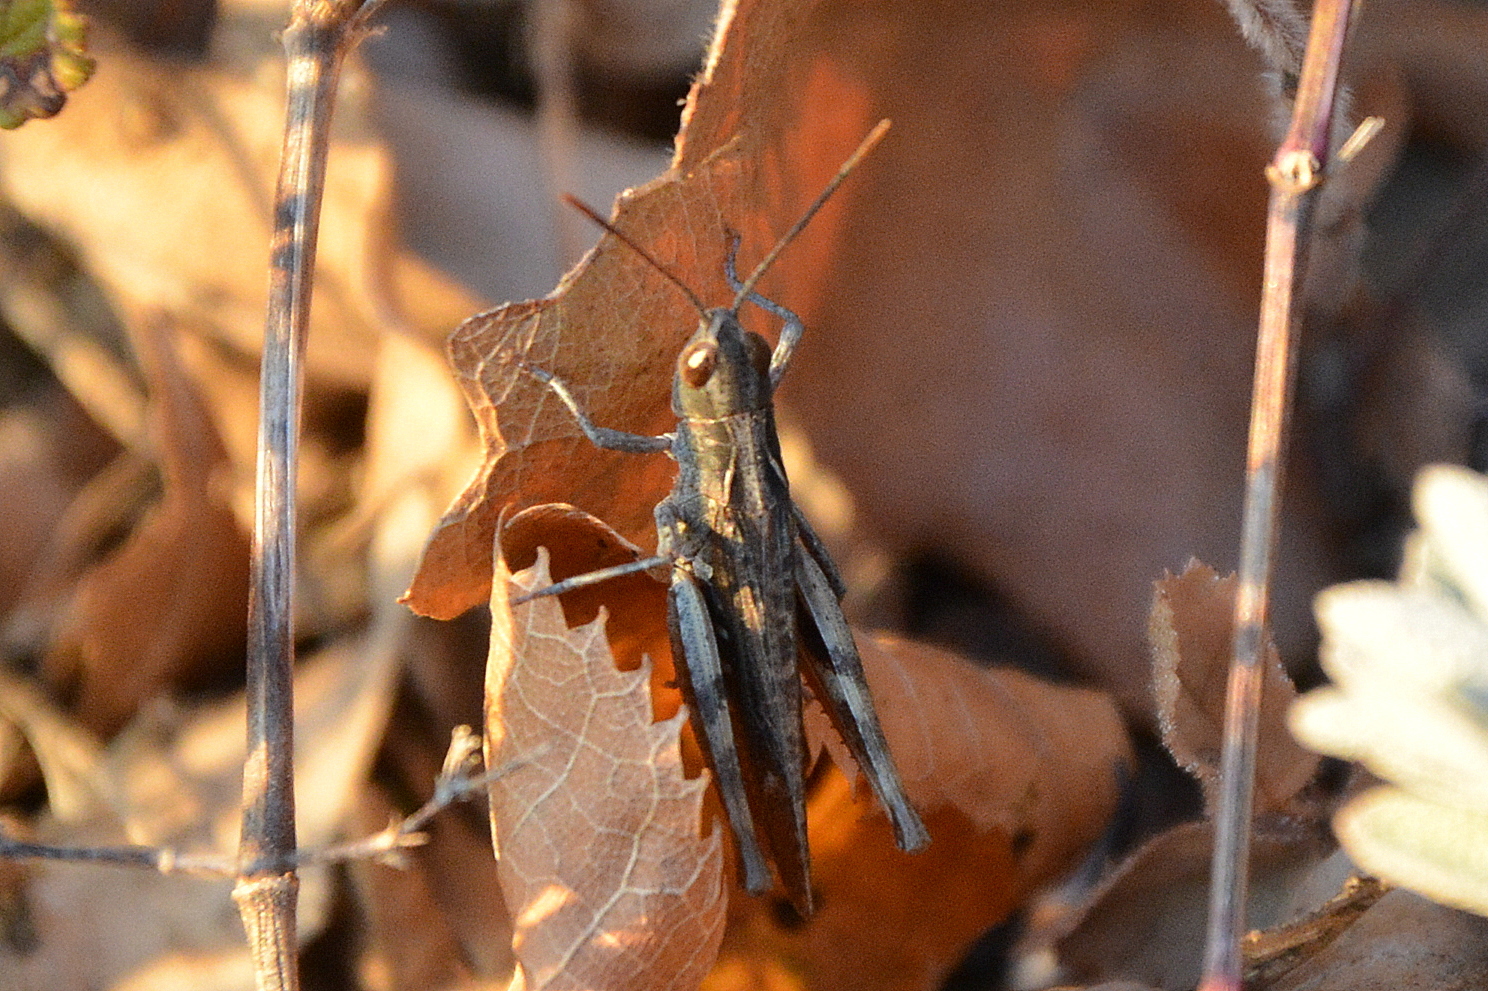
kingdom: Animalia
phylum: Arthropoda
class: Insecta
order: Orthoptera
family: Acrididae
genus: Chorthippus
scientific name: Chorthippus vagans
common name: Heath grasshopper
